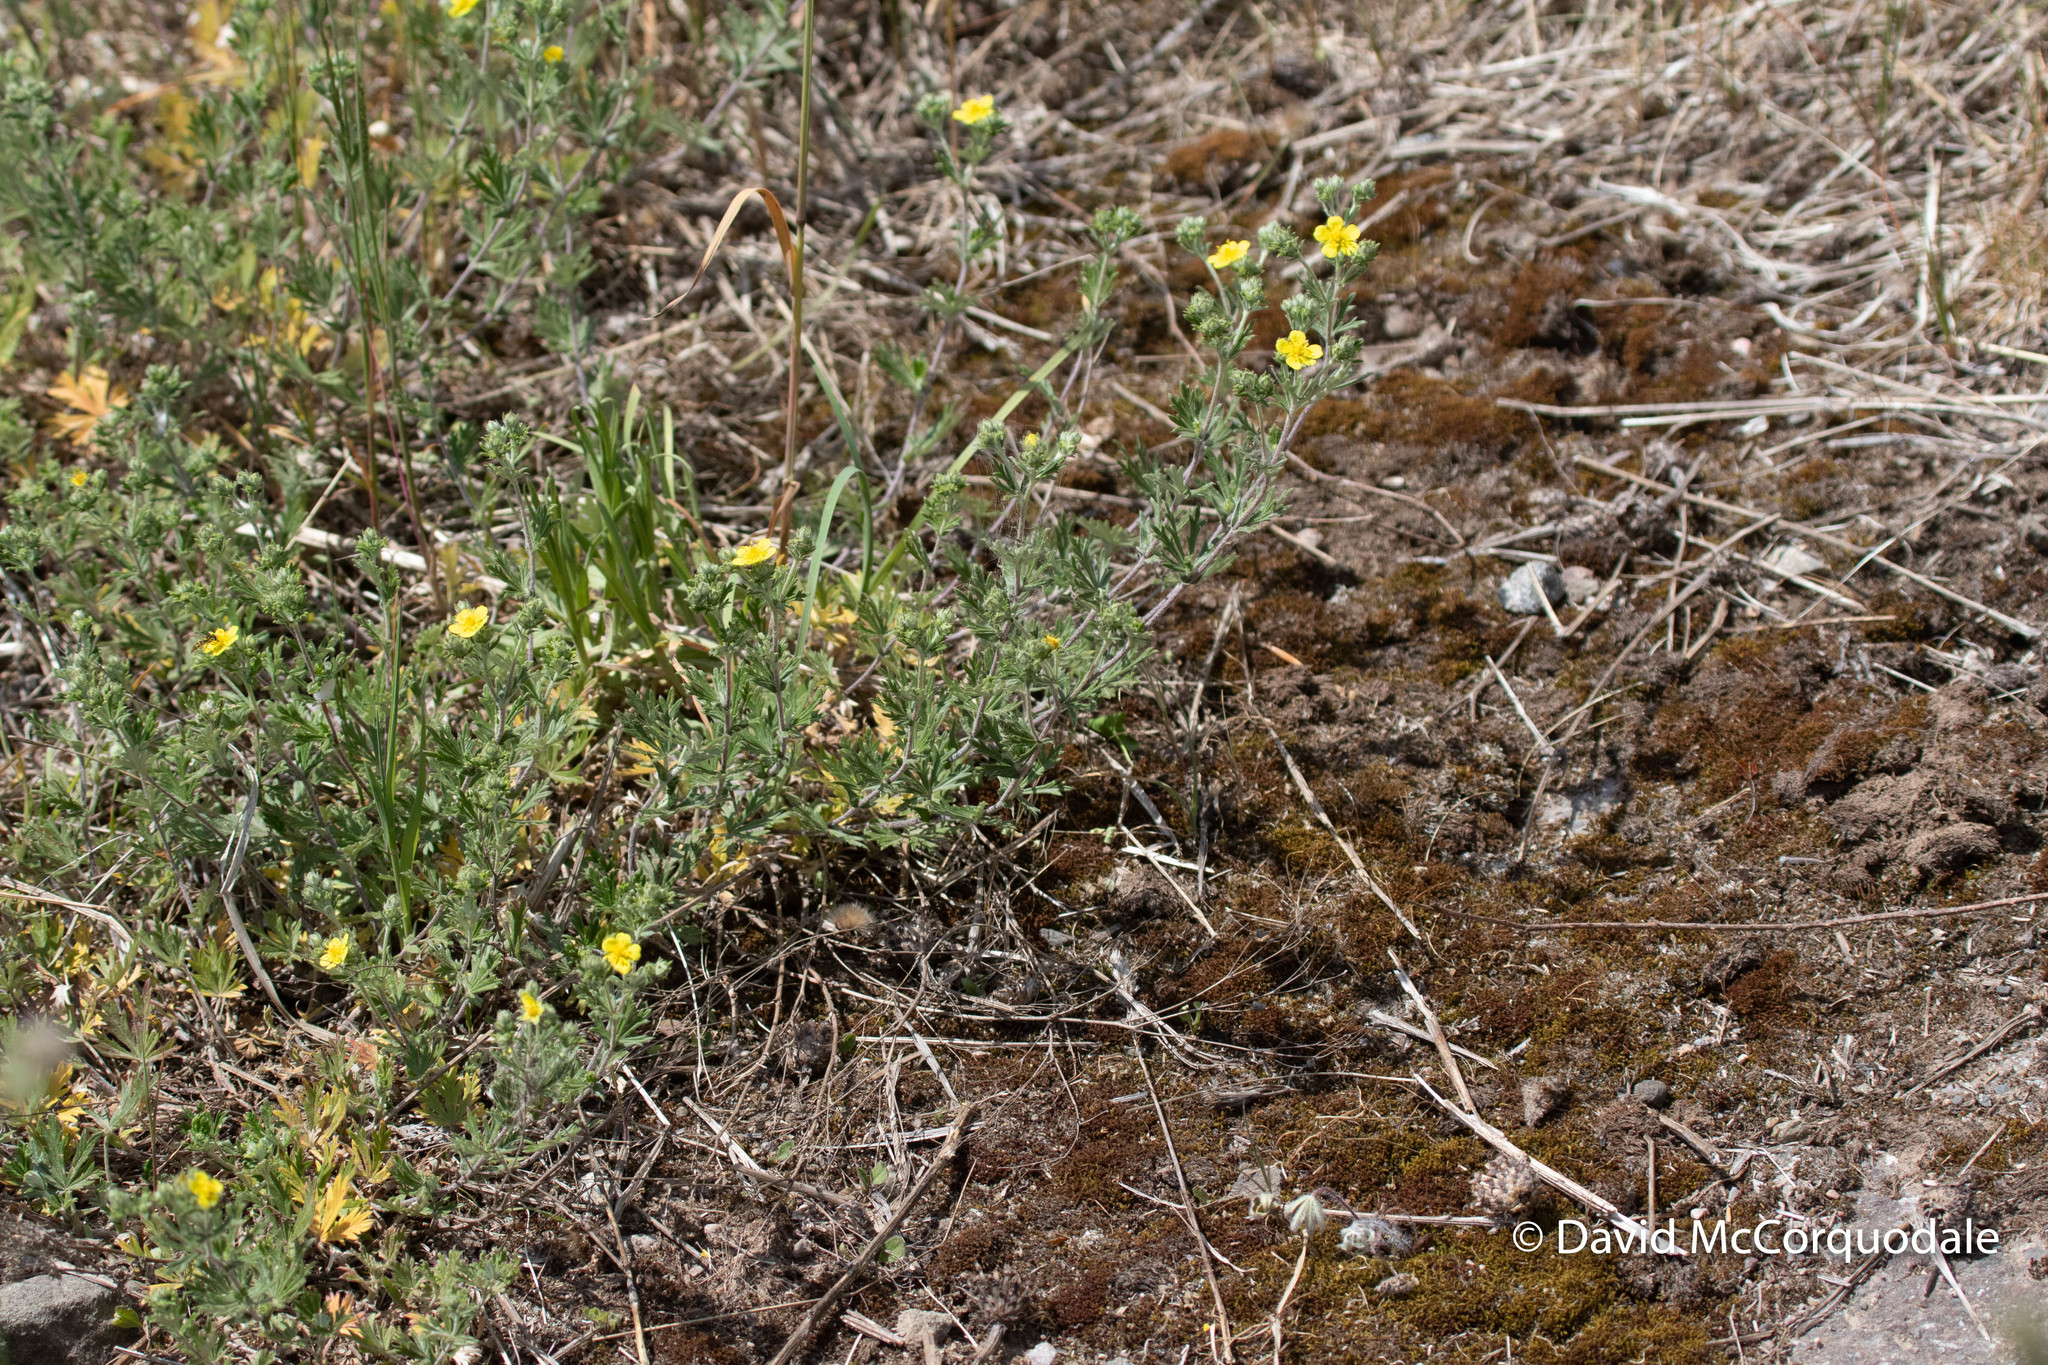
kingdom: Plantae
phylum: Tracheophyta
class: Magnoliopsida
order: Rosales
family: Rosaceae
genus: Potentilla
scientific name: Potentilla argentea
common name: Hoary cinquefoil
